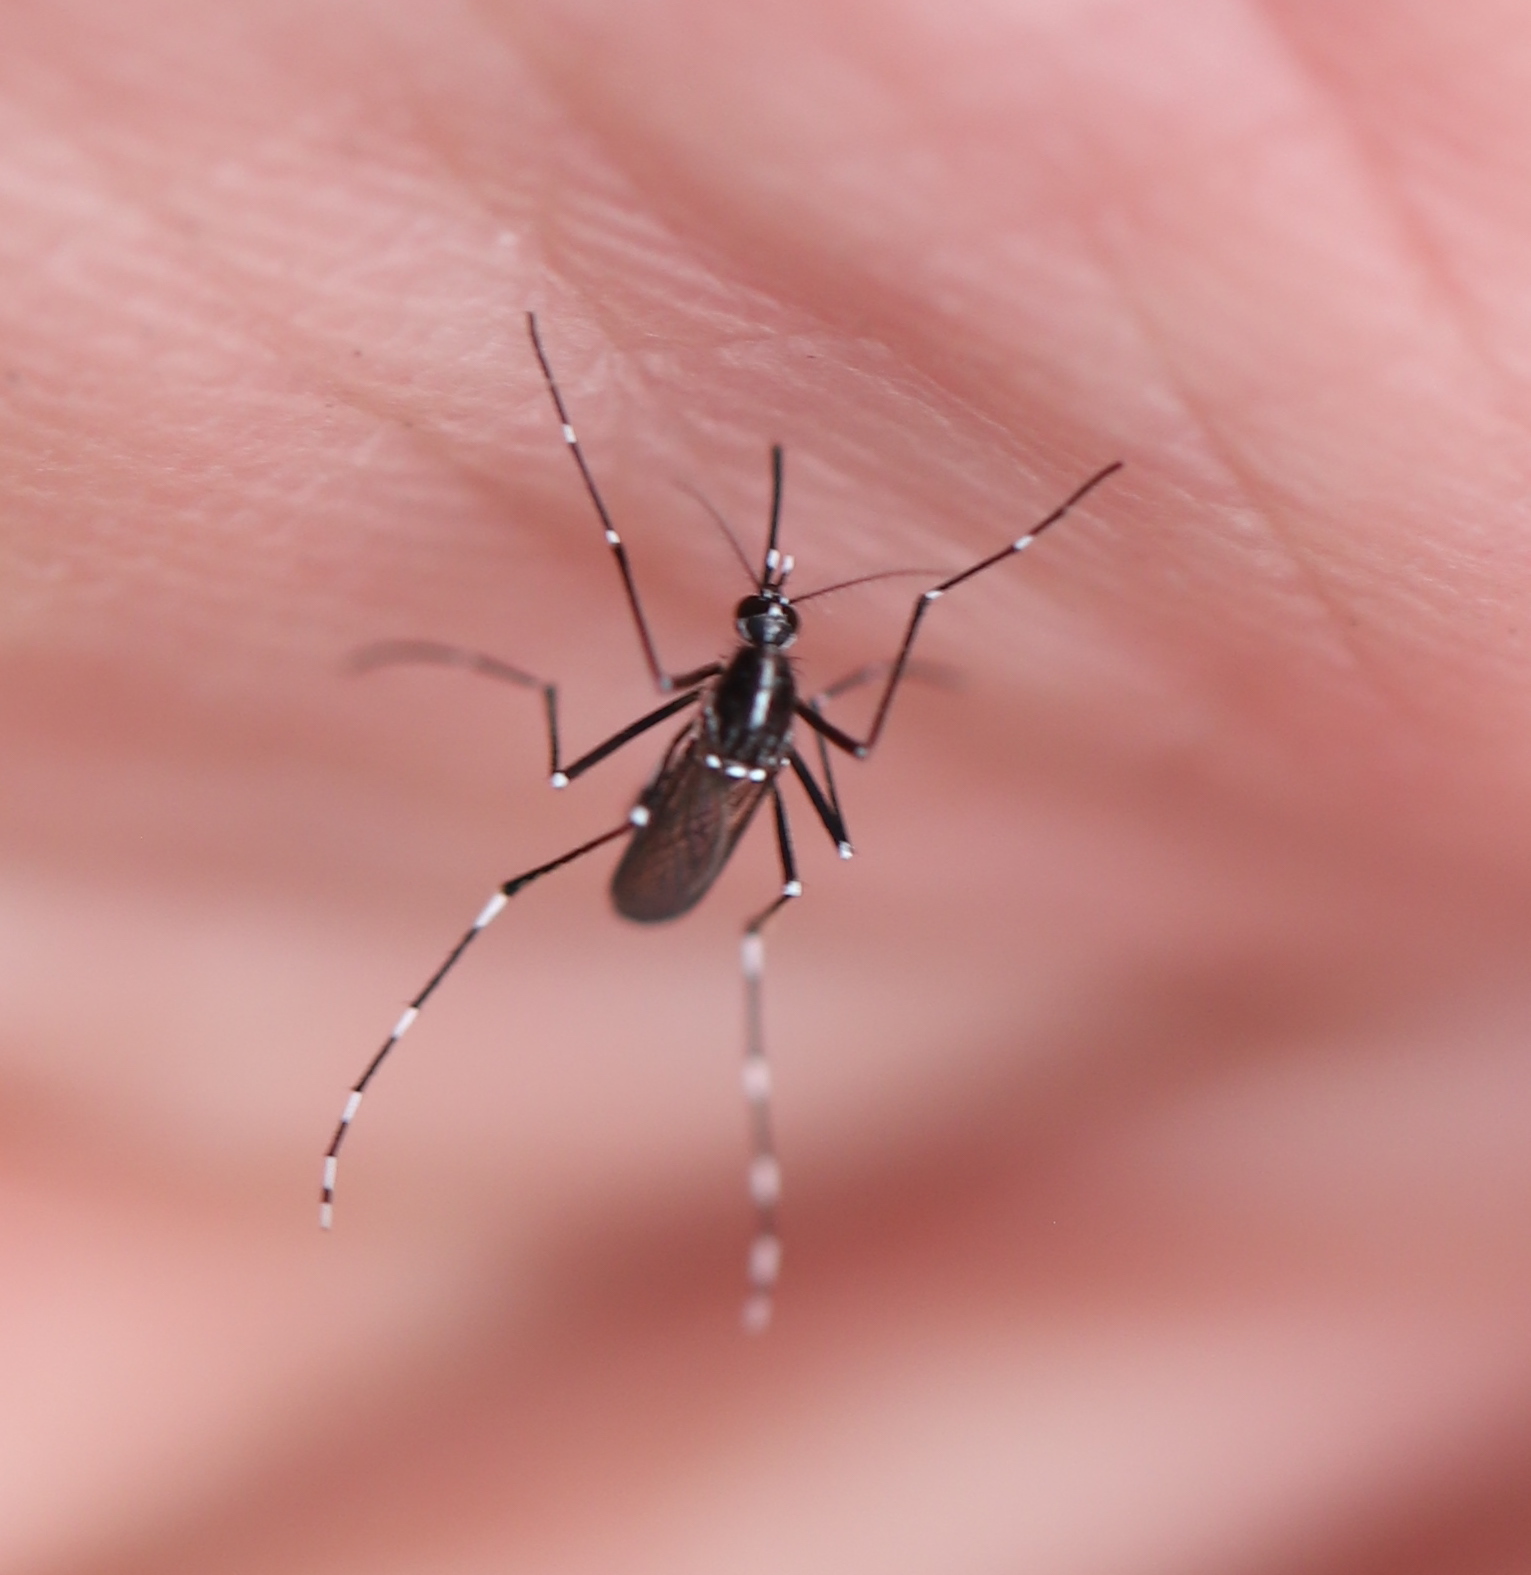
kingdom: Animalia
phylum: Arthropoda
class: Insecta
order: Diptera
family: Culicidae
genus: Aedes
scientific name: Aedes albopictus
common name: Tiger mosquito
